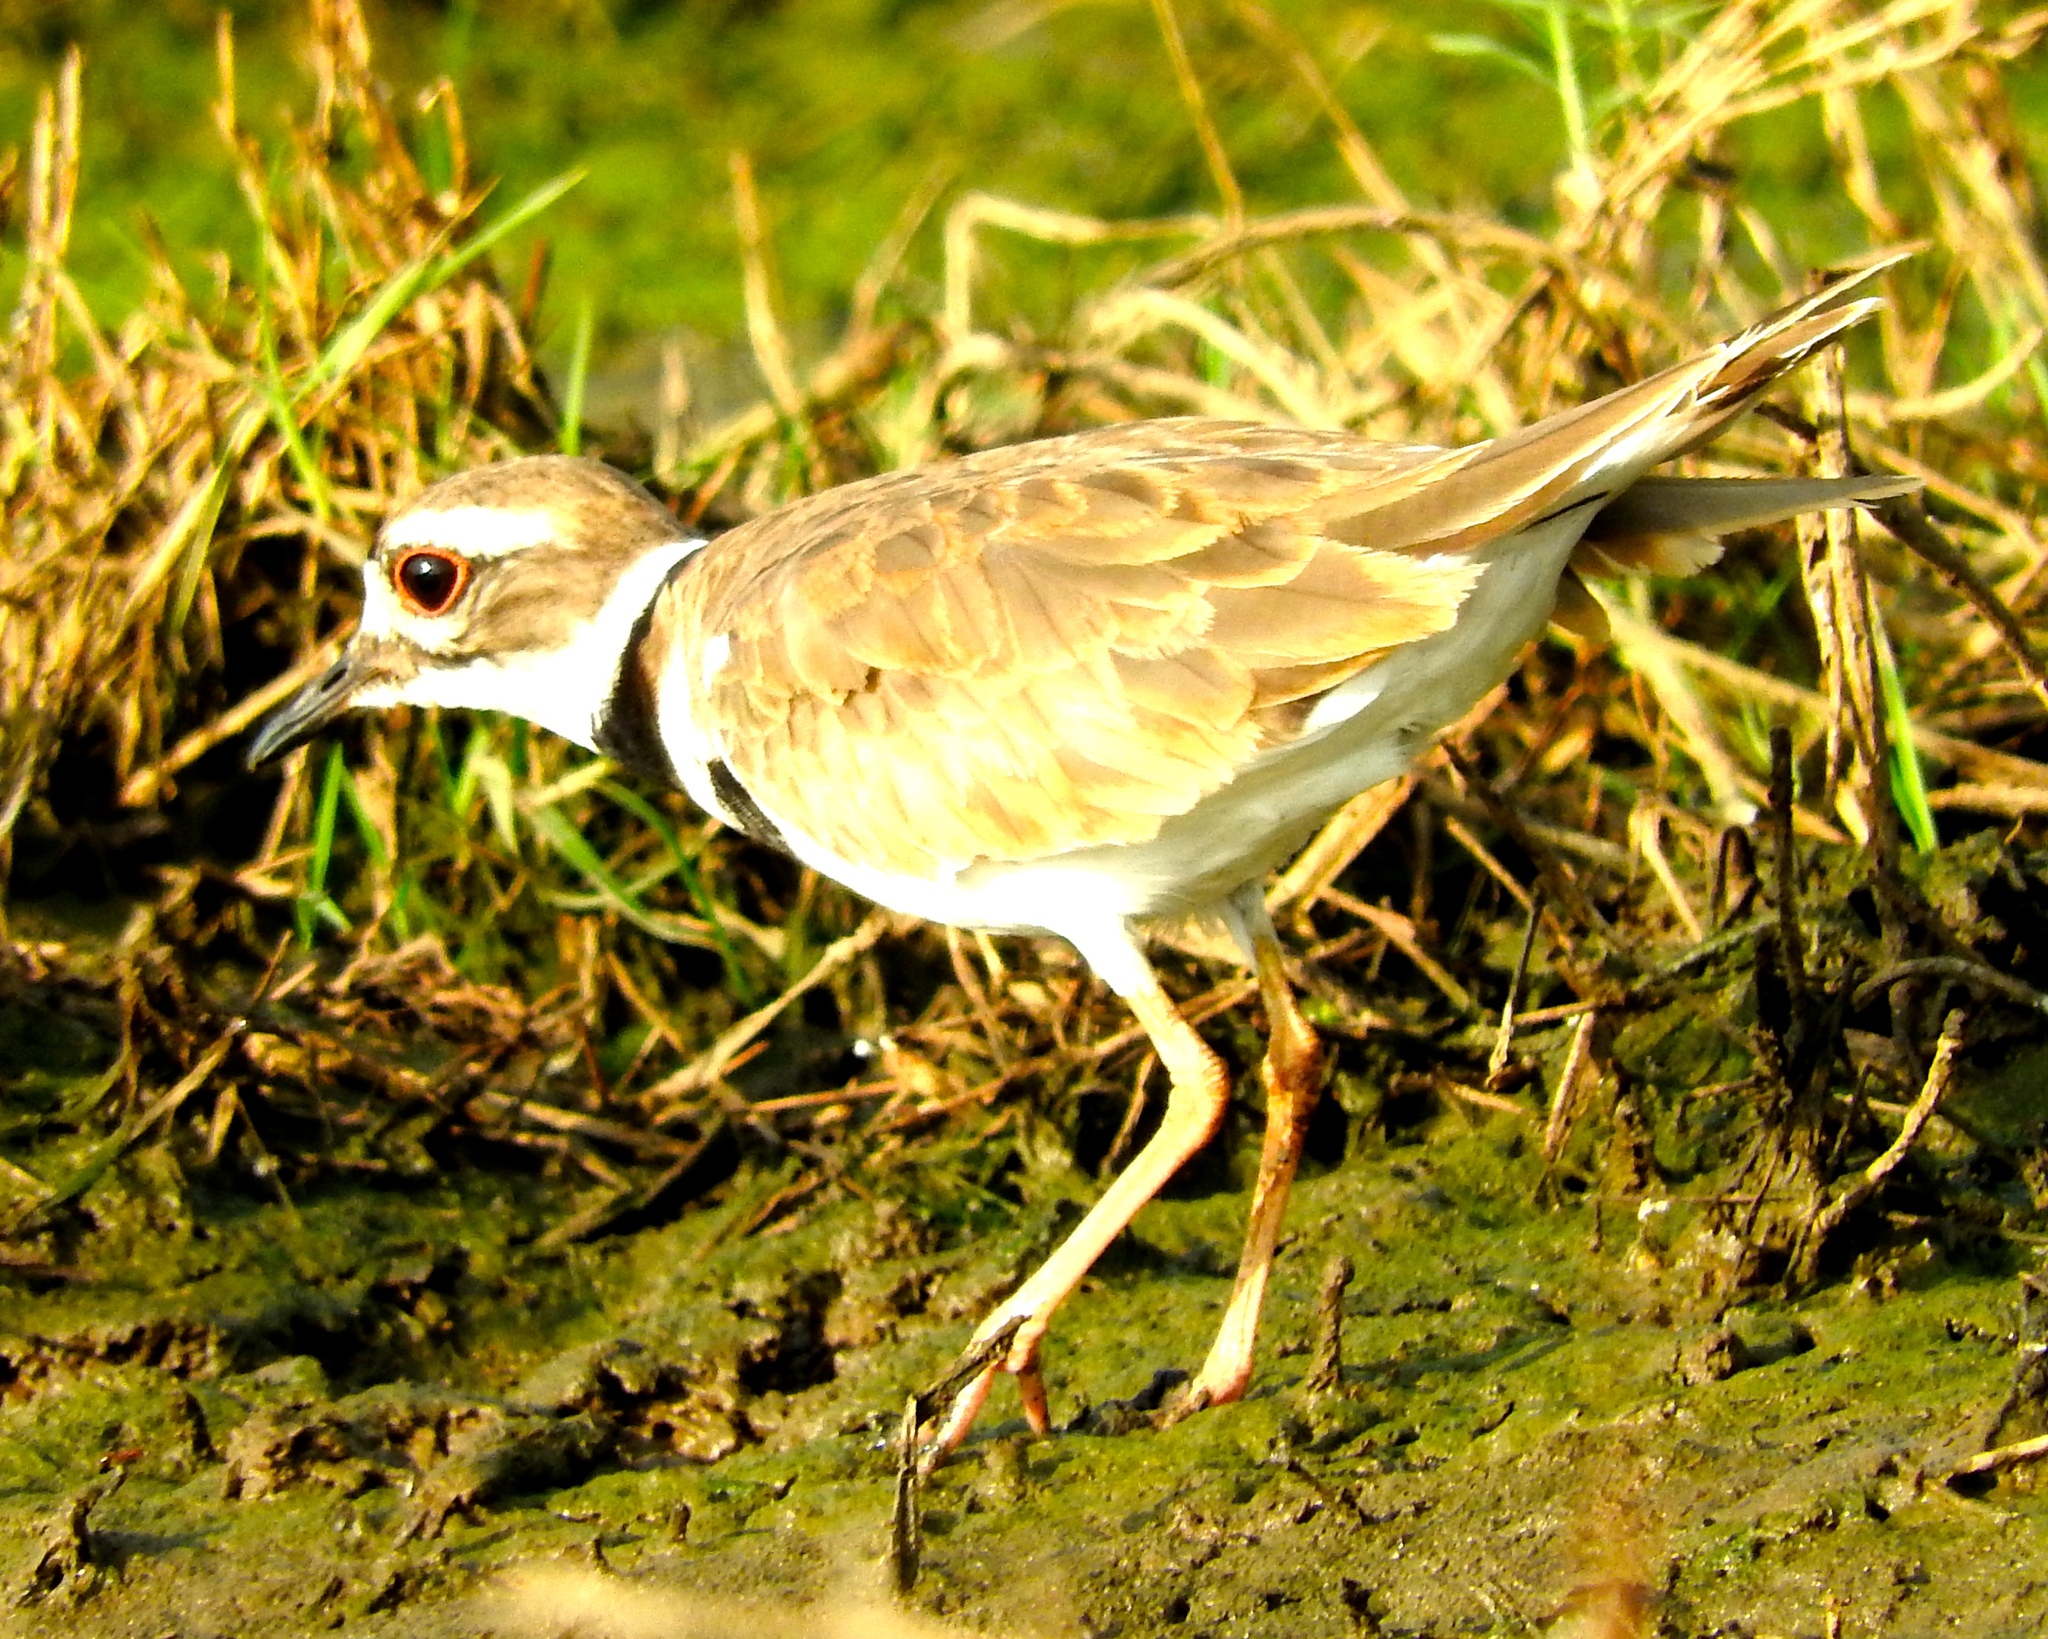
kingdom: Animalia
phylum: Chordata
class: Aves
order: Charadriiformes
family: Charadriidae
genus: Charadrius
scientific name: Charadrius vociferus
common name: Killdeer
